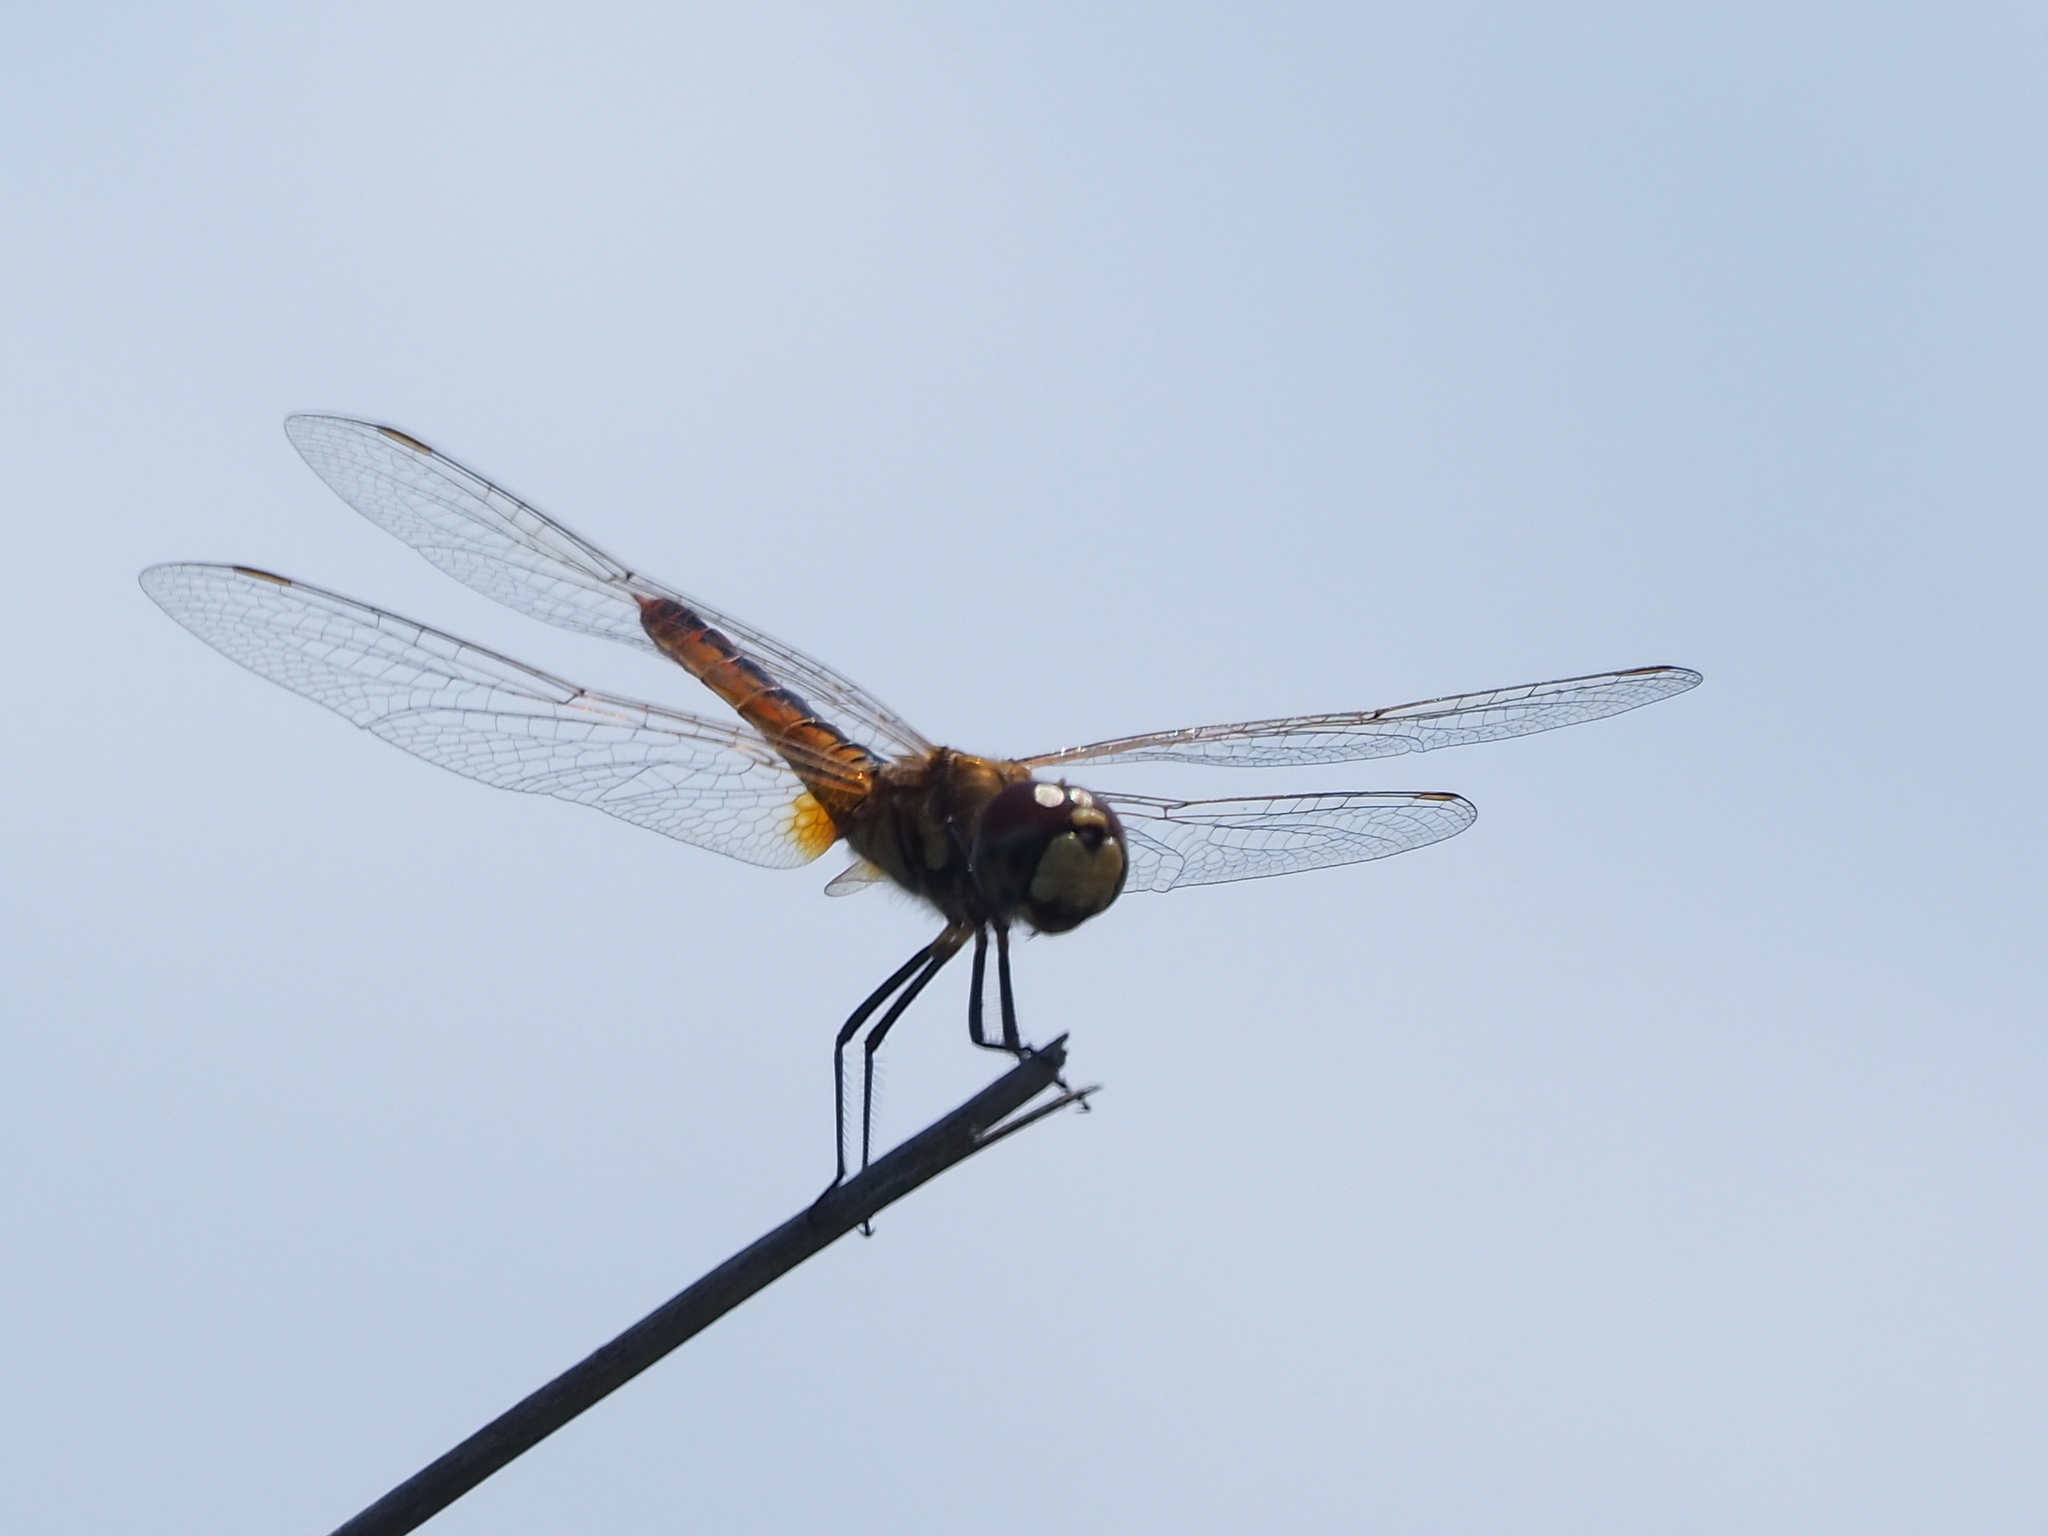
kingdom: Animalia
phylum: Arthropoda
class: Insecta
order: Odonata
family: Libellulidae
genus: Macrodiplax
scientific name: Macrodiplax cora
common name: Coastal glider
